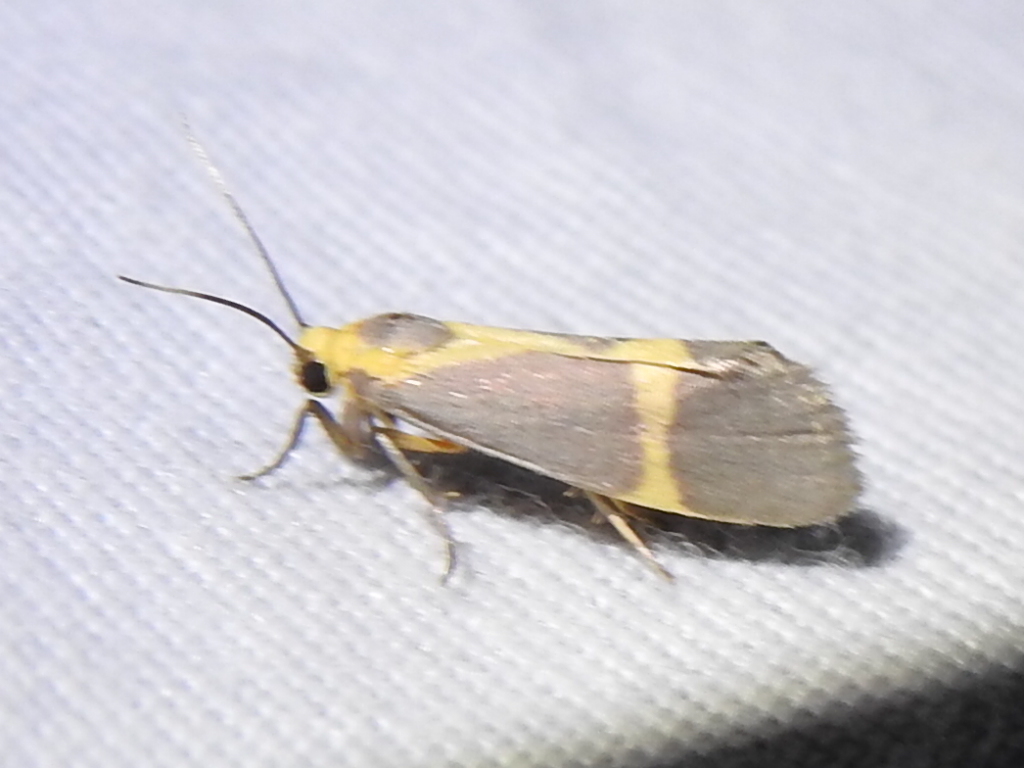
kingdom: Animalia
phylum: Arthropoda
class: Insecta
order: Lepidoptera
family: Erebidae
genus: Cisthene
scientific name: Cisthene tenuifascia
